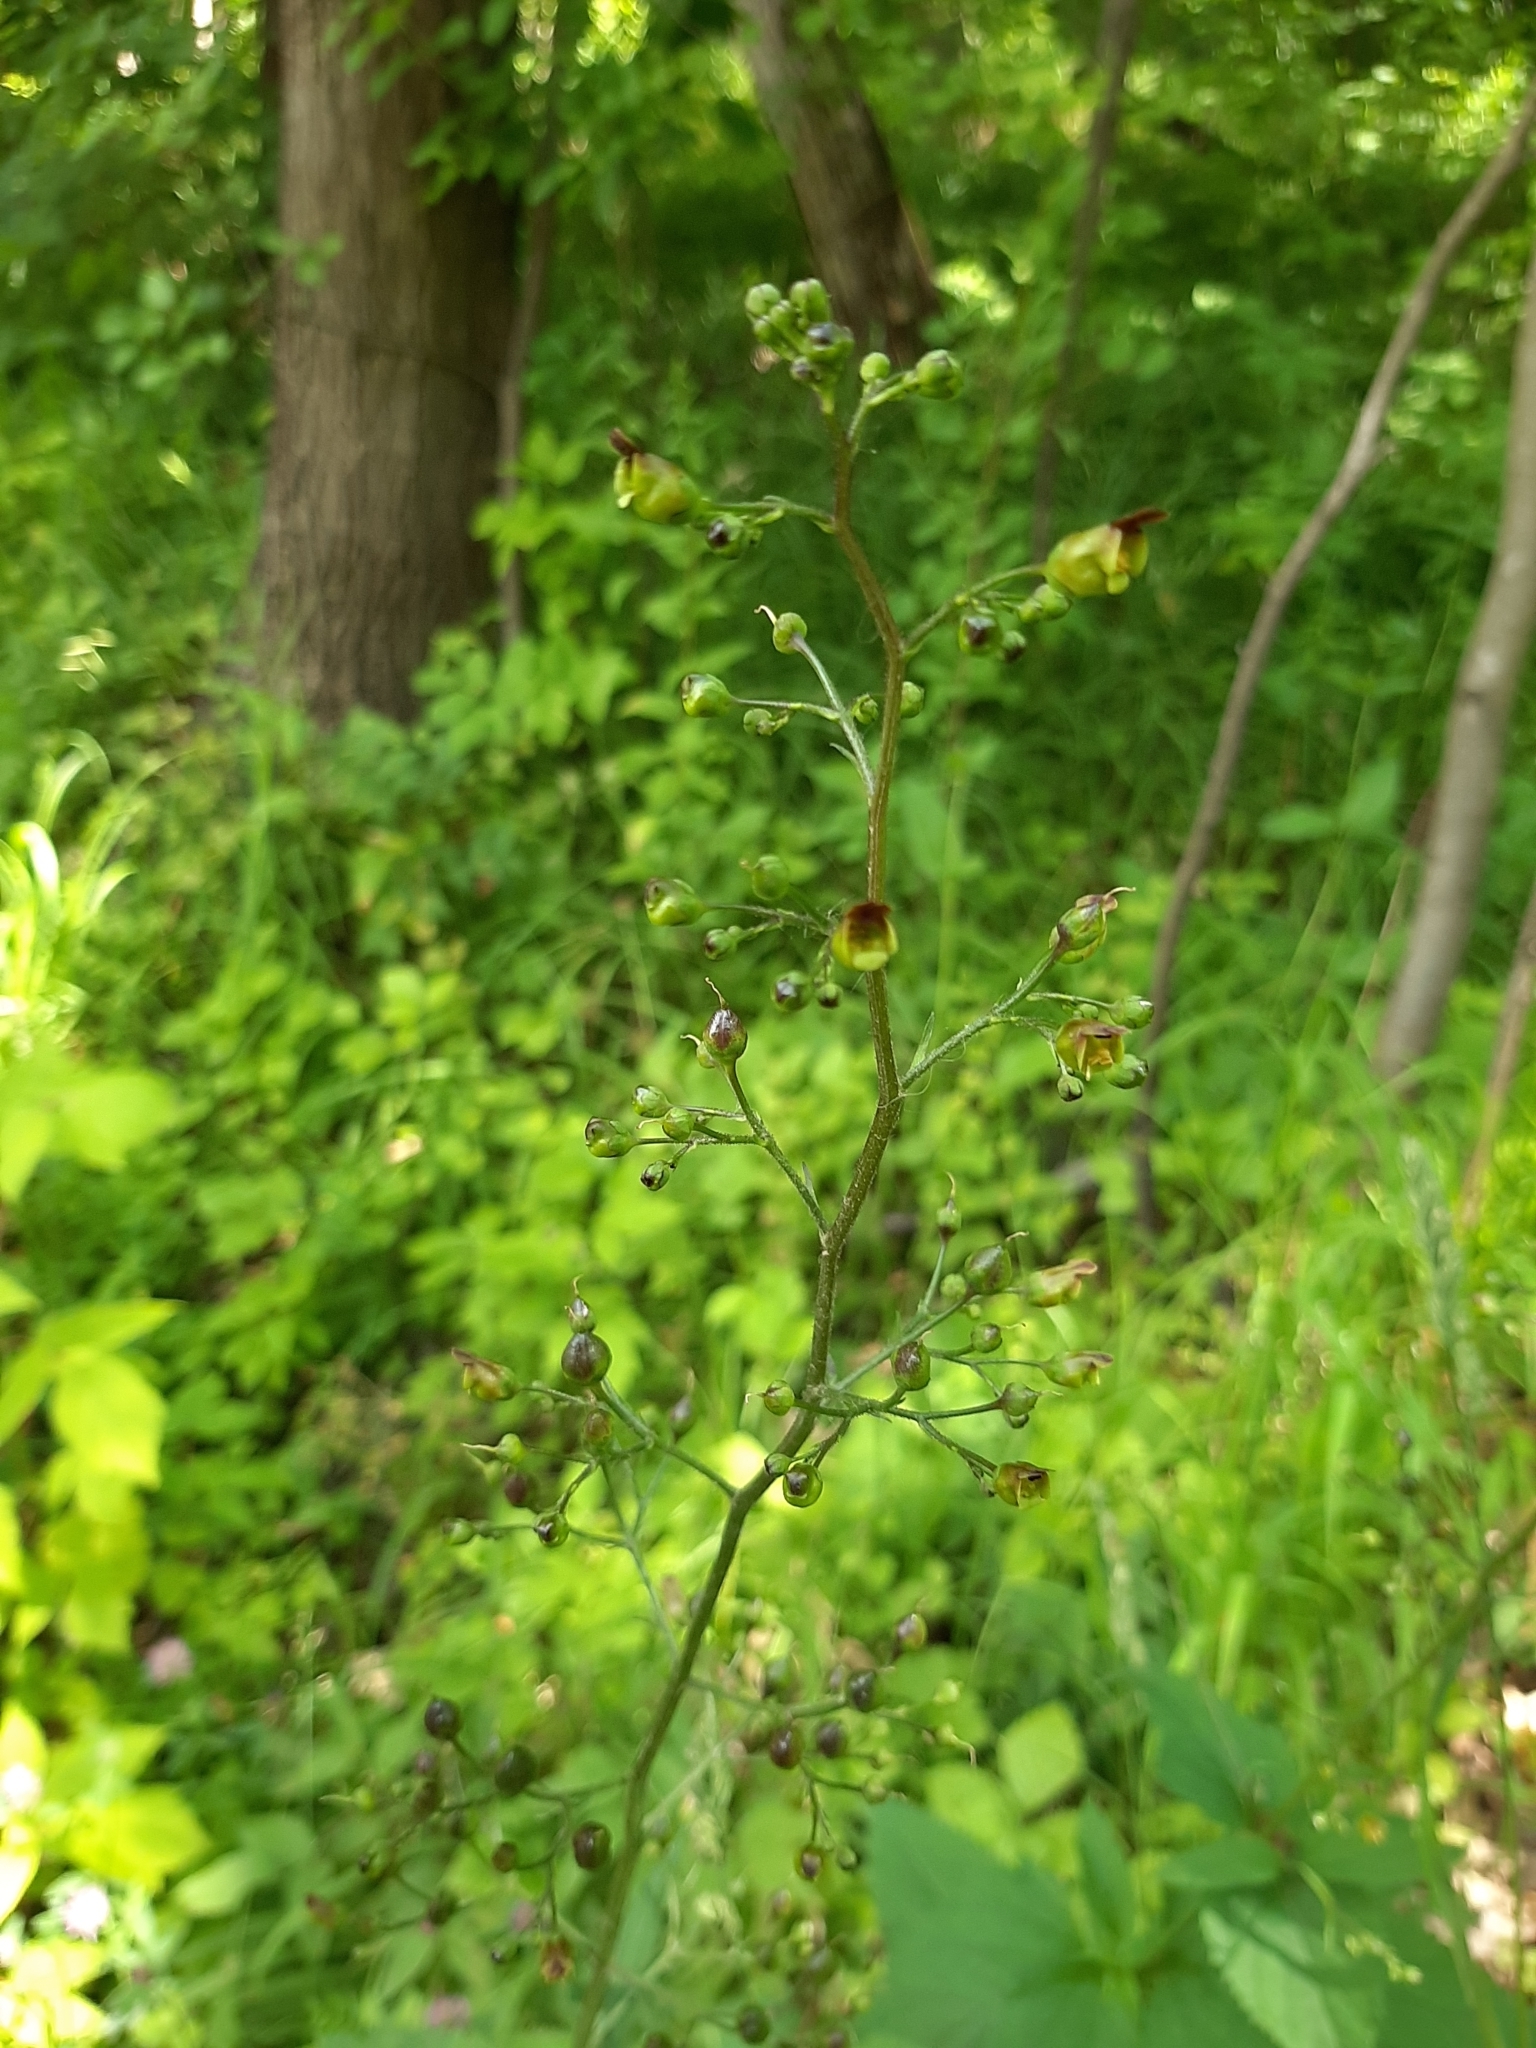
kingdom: Plantae
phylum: Tracheophyta
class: Magnoliopsida
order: Lamiales
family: Scrophulariaceae
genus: Scrophularia
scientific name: Scrophularia nodosa
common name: Common figwort
